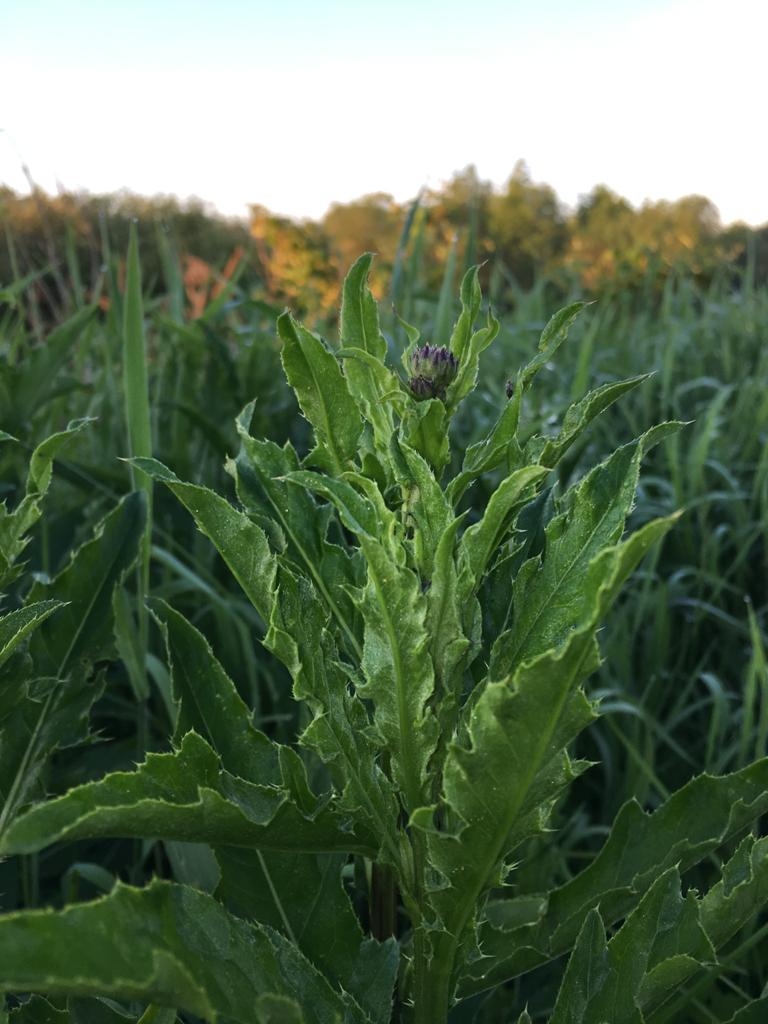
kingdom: Plantae
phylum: Tracheophyta
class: Magnoliopsida
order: Asterales
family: Asteraceae
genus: Cirsium
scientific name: Cirsium arvense
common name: Creeping thistle
